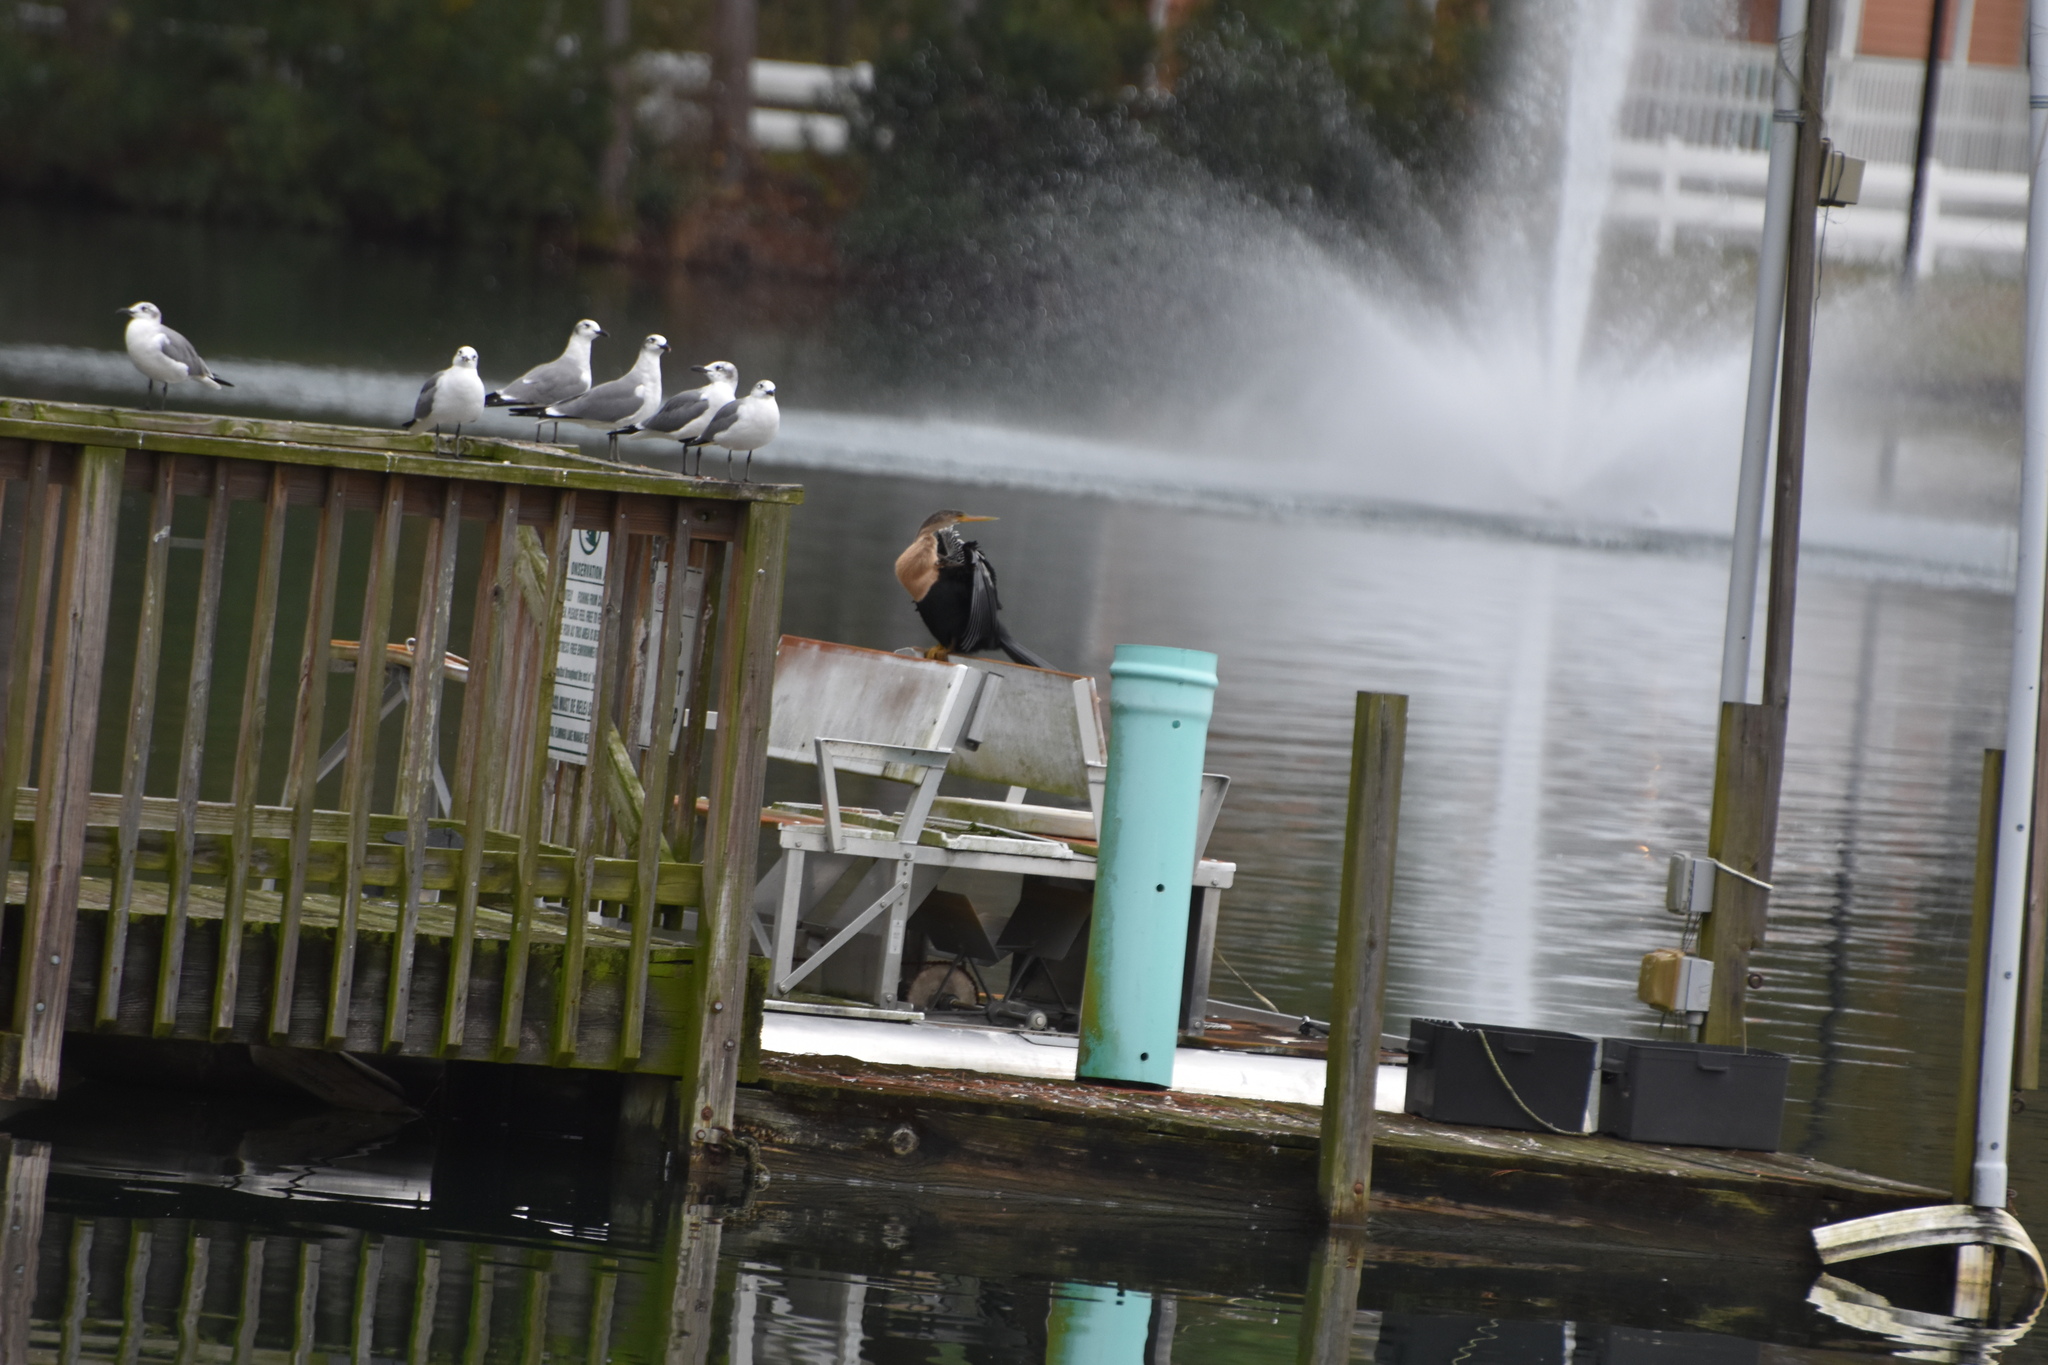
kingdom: Animalia
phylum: Chordata
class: Aves
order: Suliformes
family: Anhingidae
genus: Anhinga
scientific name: Anhinga anhinga
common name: Anhinga
